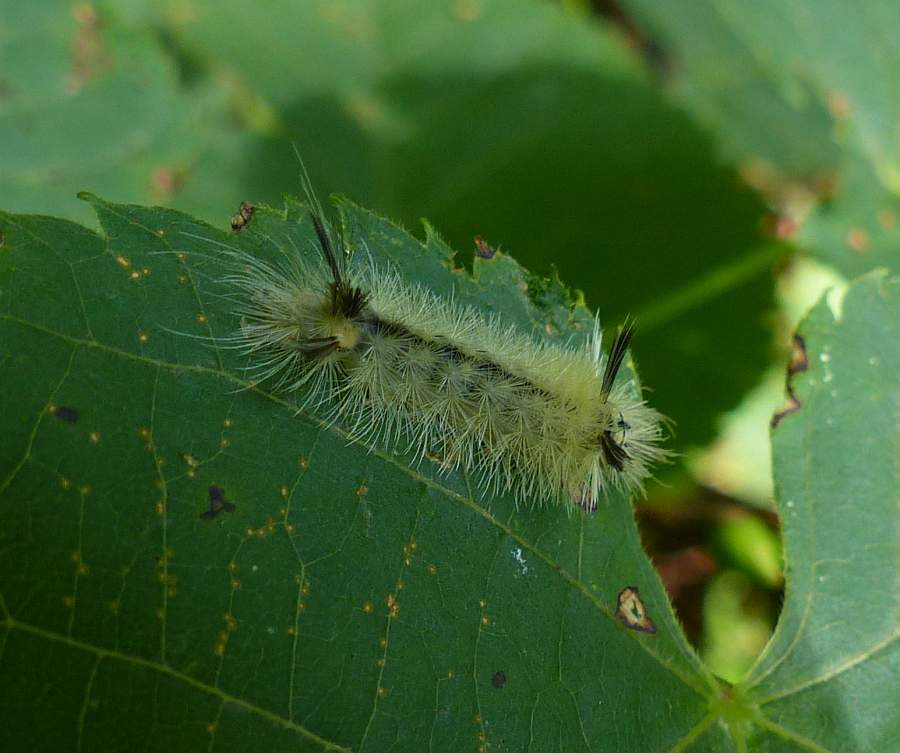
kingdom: Animalia
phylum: Arthropoda
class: Insecta
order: Lepidoptera
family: Erebidae
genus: Halysidota
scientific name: Halysidota tessellaris
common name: Banded tussock moth
